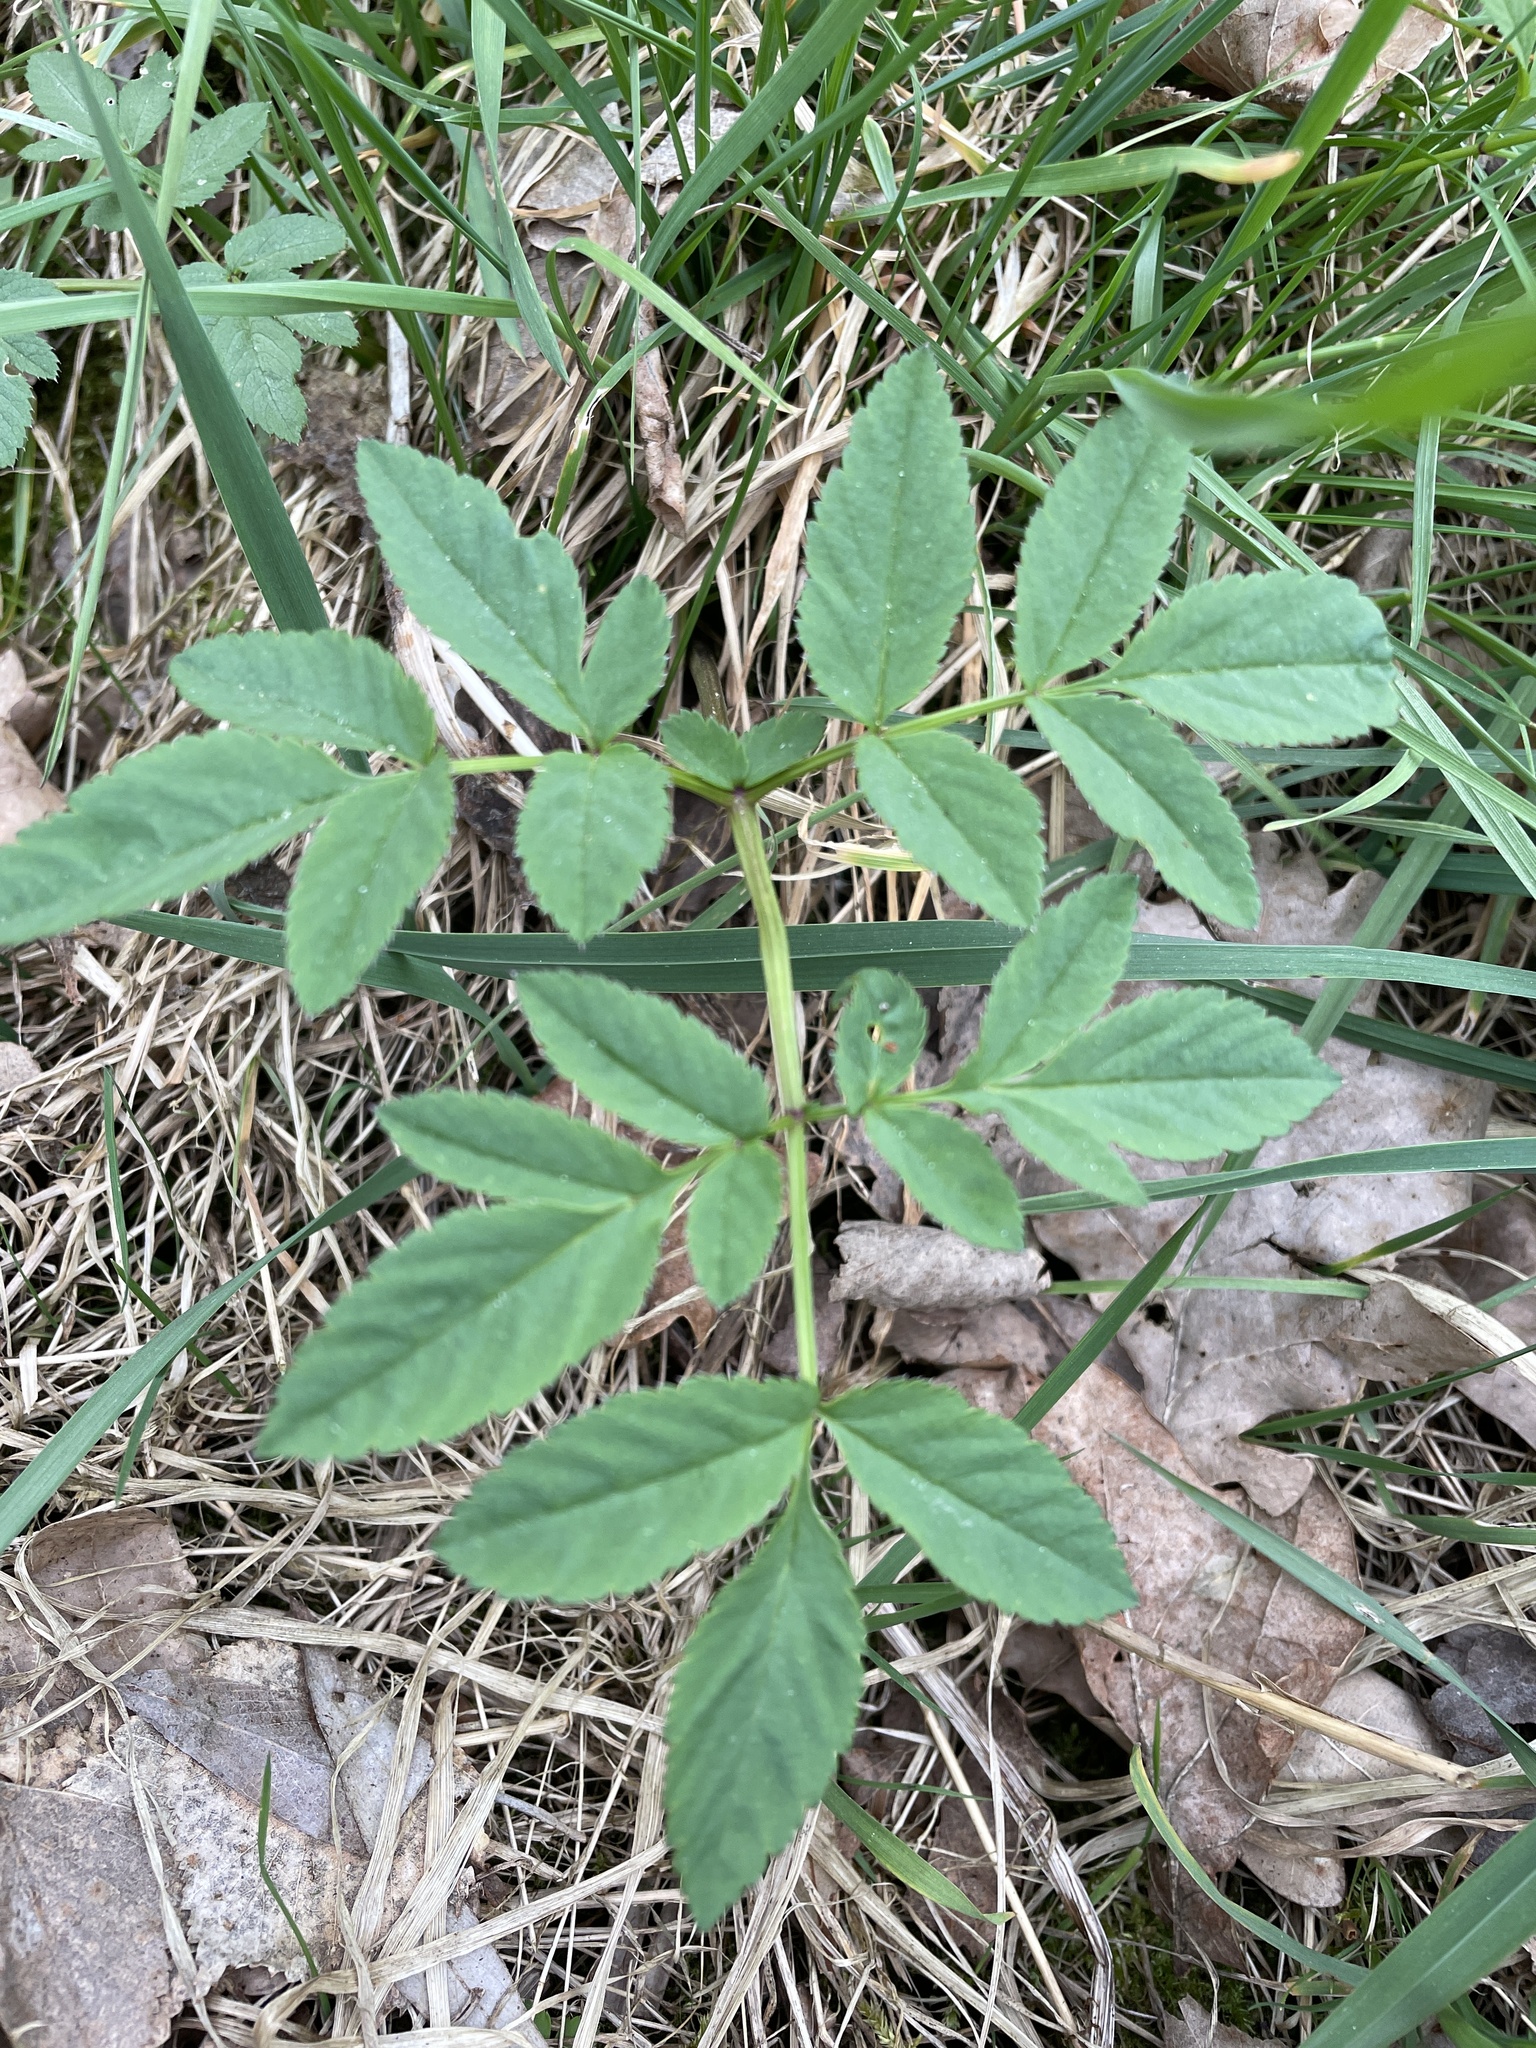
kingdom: Plantae
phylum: Tracheophyta
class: Magnoliopsida
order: Apiales
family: Apiaceae
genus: Angelica
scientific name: Angelica sylvestris
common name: Wild angelica
